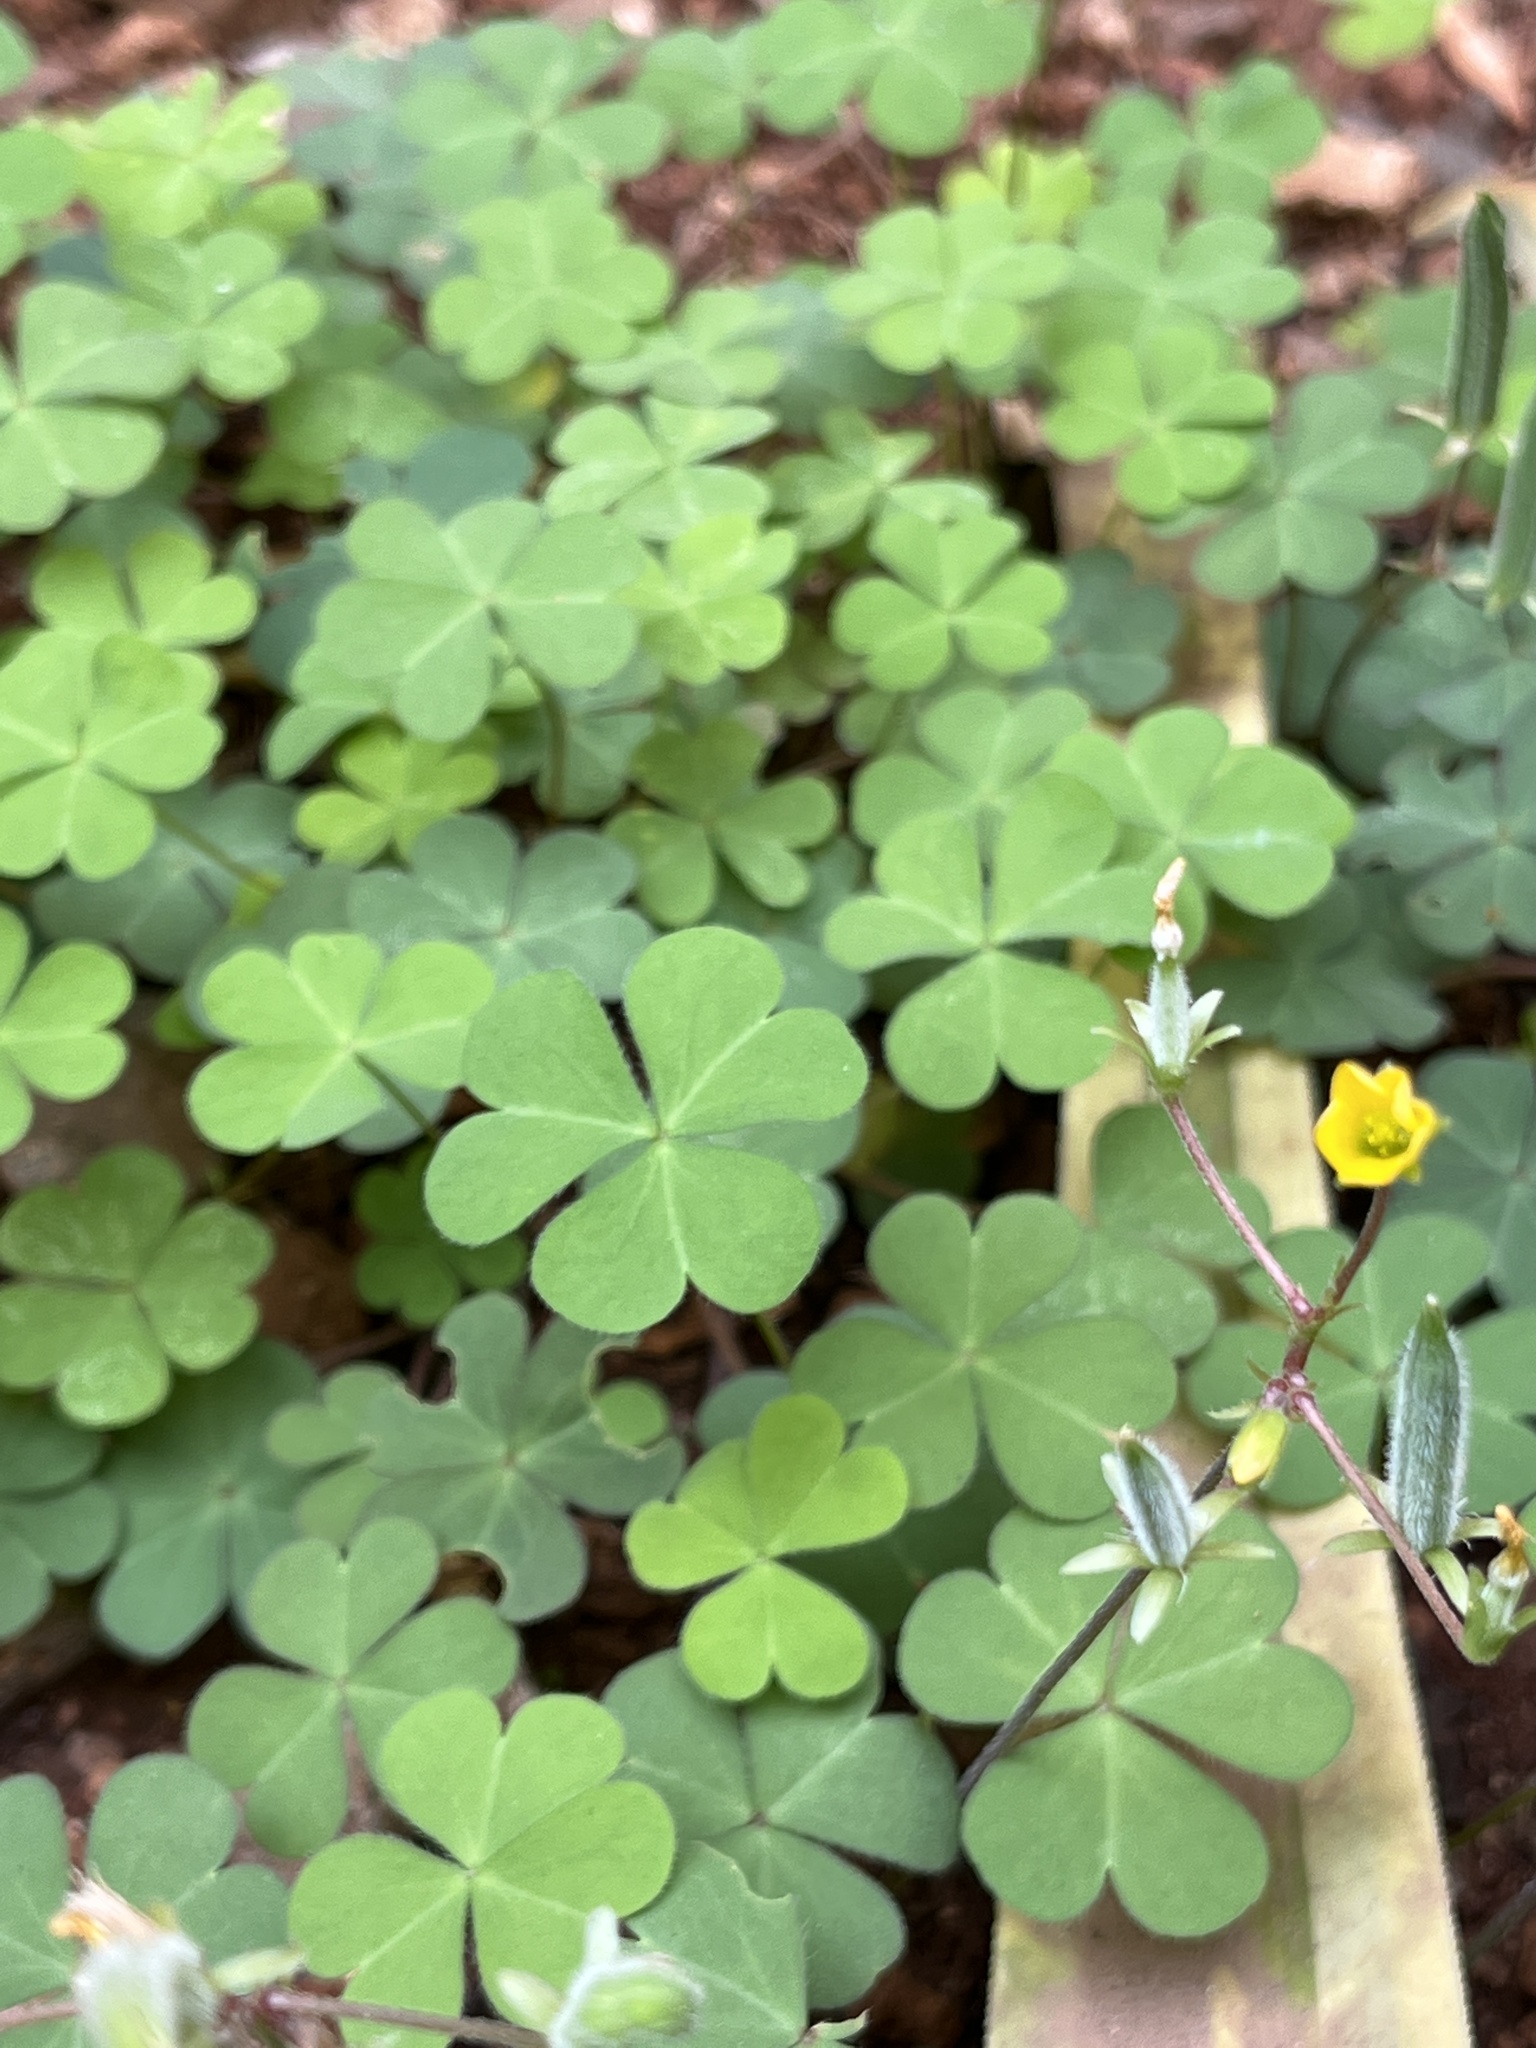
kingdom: Plantae
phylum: Tracheophyta
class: Magnoliopsida
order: Oxalidales
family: Oxalidaceae
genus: Oxalis
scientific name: Oxalis corniculata
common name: Procumbent yellow-sorrel
